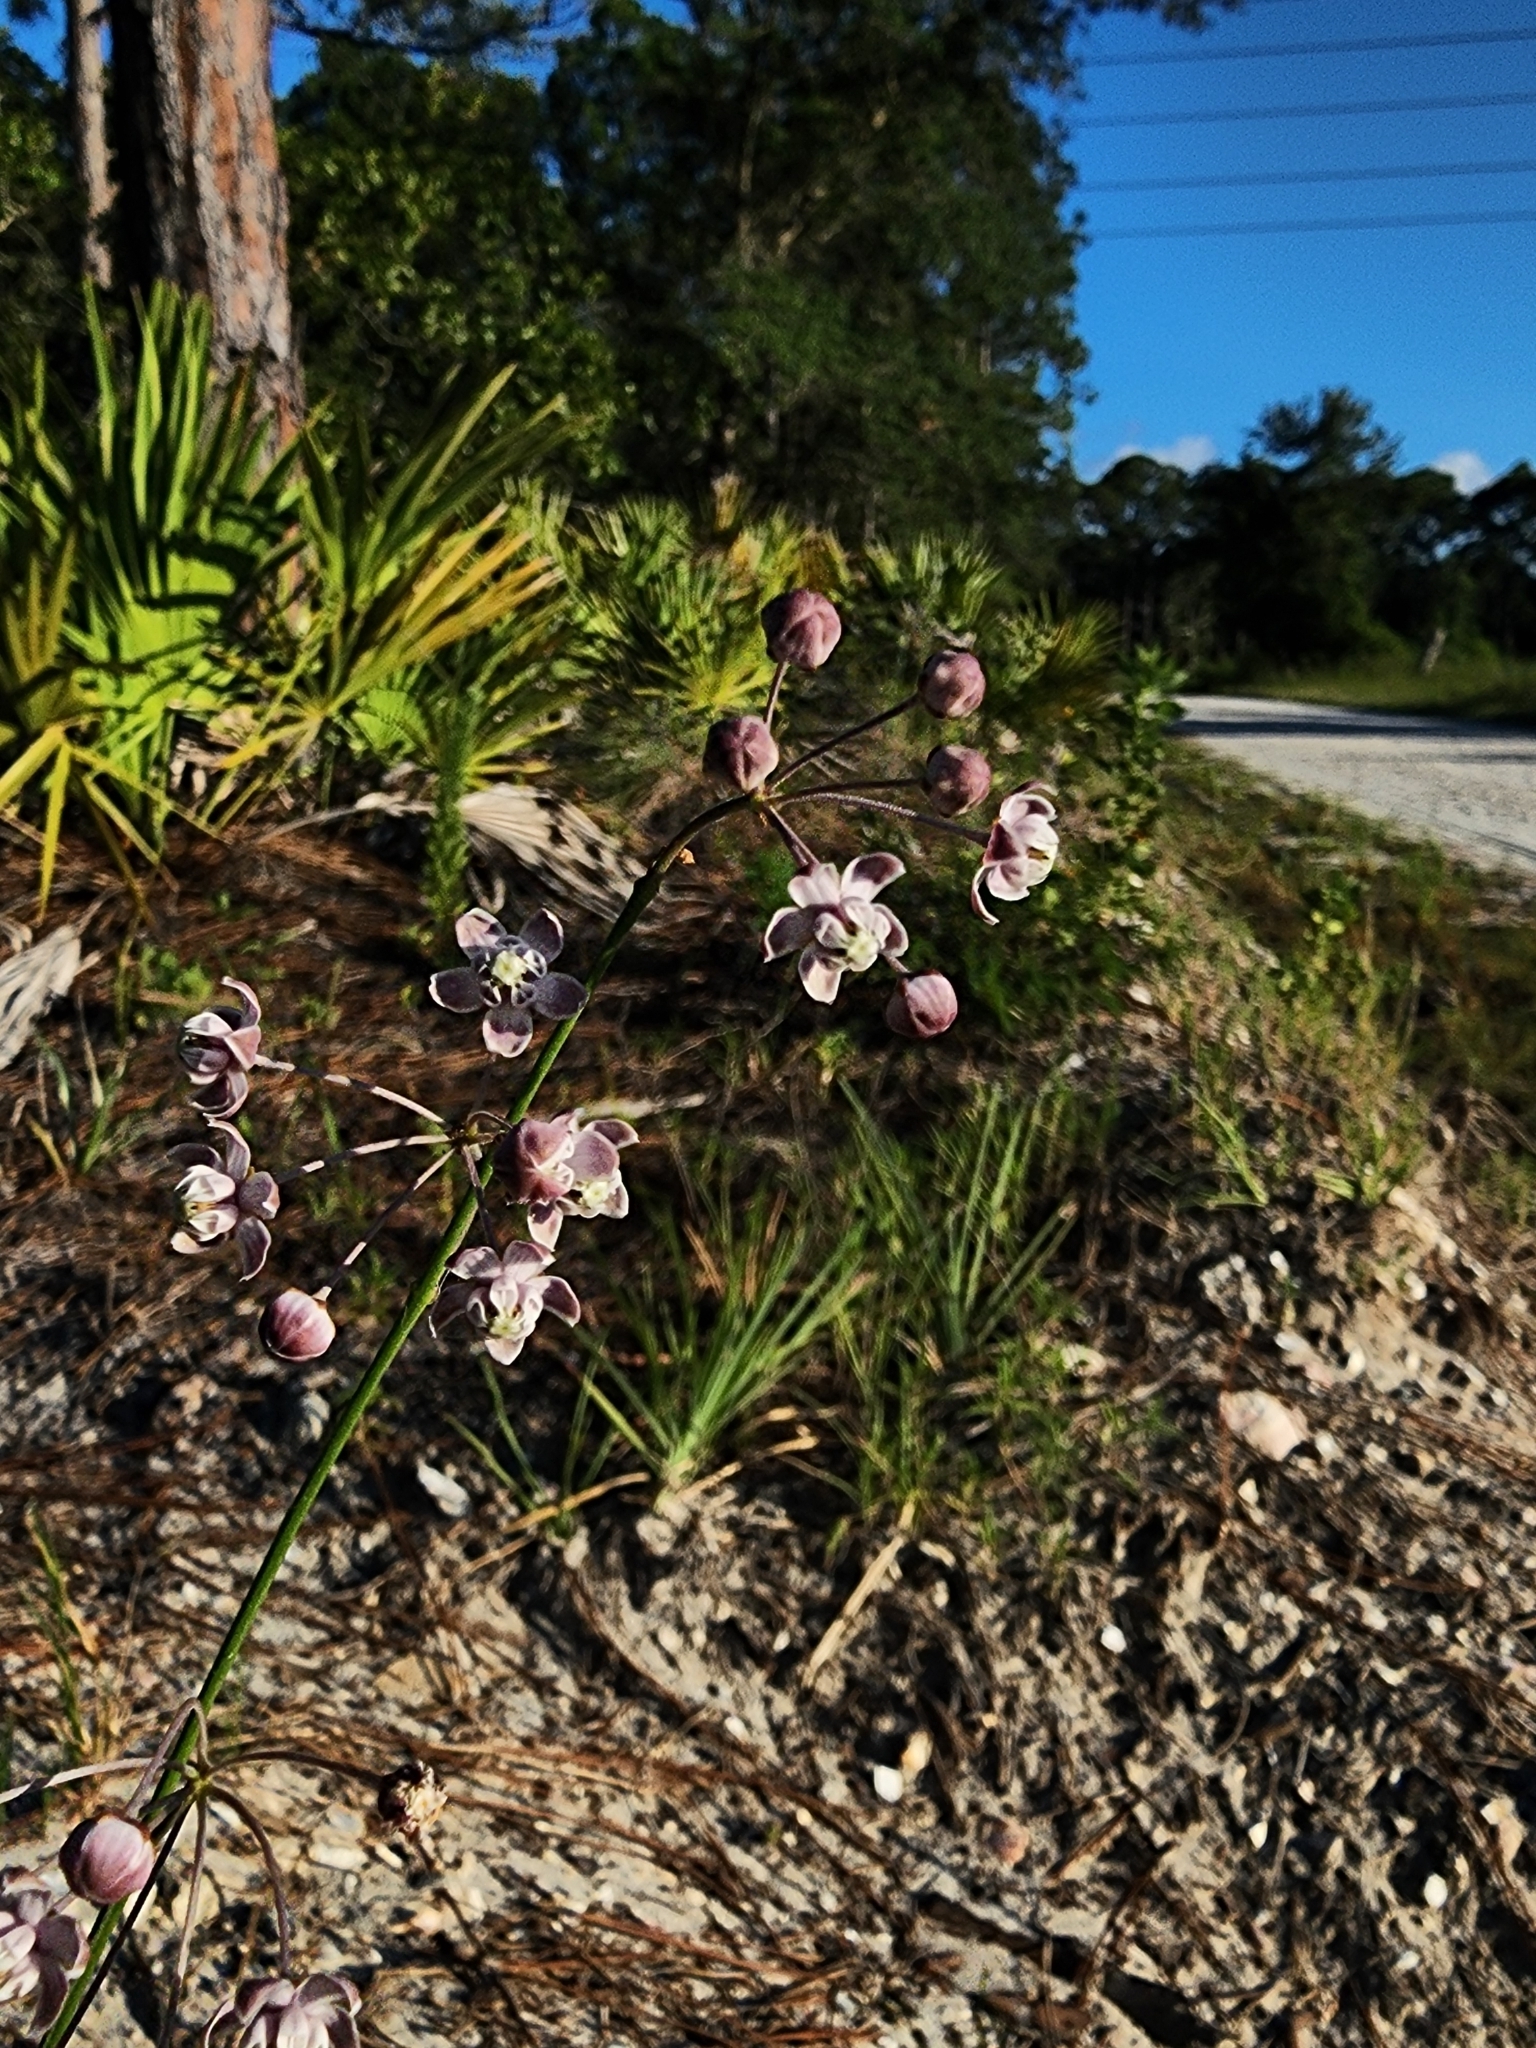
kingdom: Plantae
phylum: Tracheophyta
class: Magnoliopsida
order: Gentianales
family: Apocynaceae
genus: Asclepias
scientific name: Asclepias cinerea
